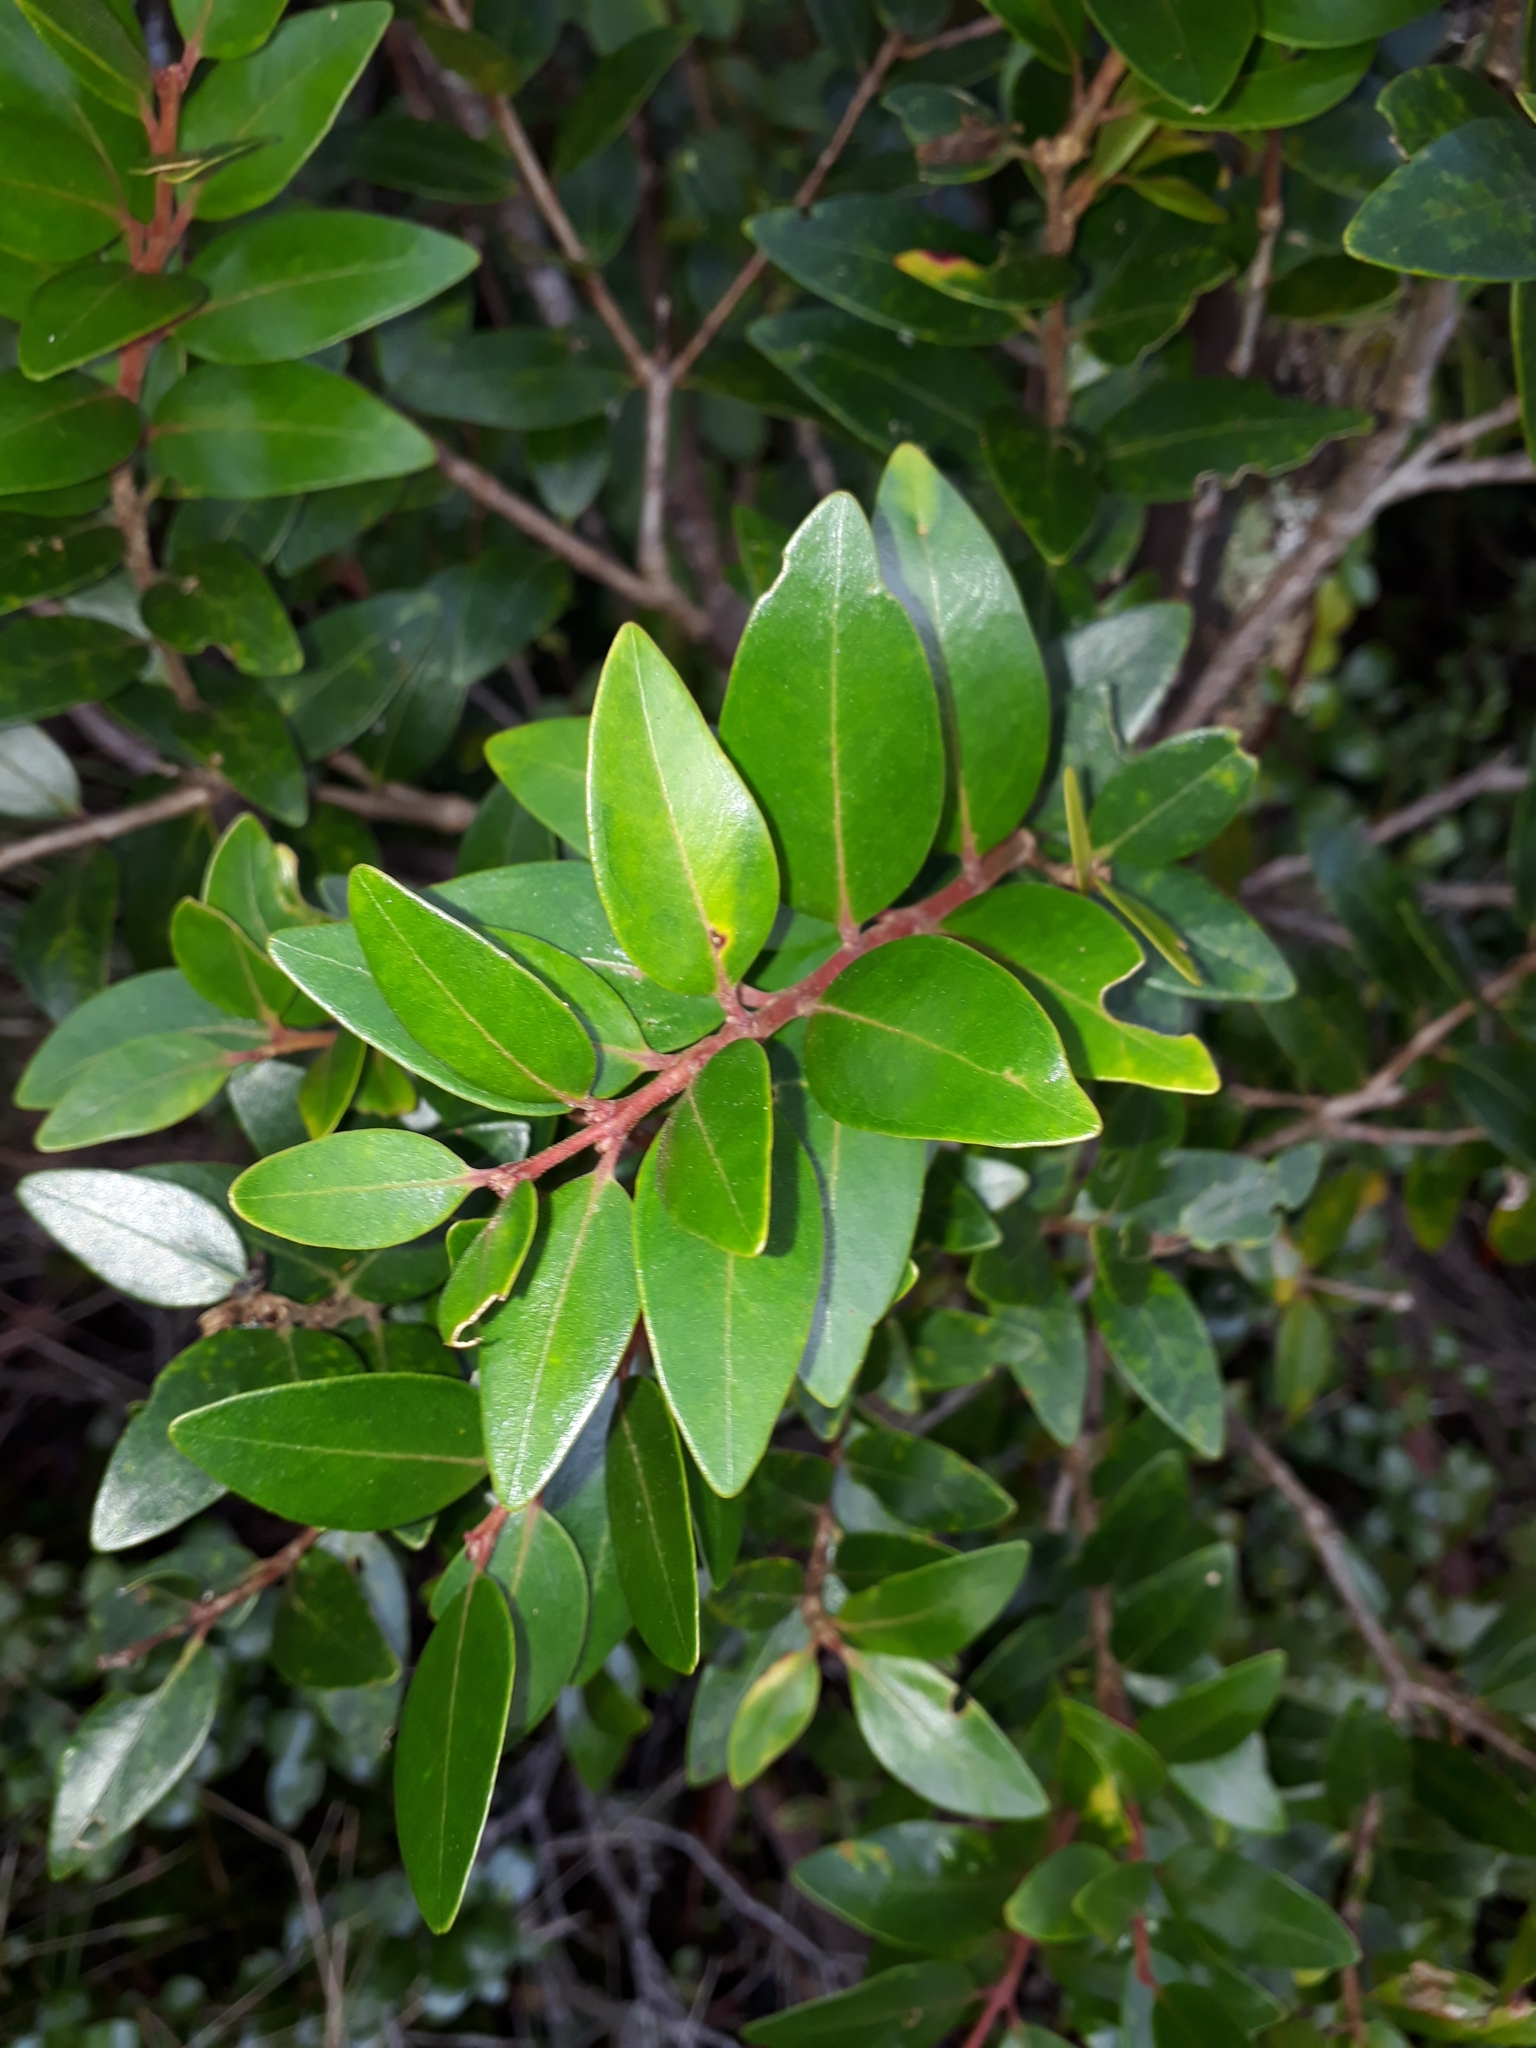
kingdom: Plantae
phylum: Tracheophyta
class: Magnoliopsida
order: Myrtales
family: Myrtaceae
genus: Metrosideros
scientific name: Metrosideros robusta
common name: Northern rata
